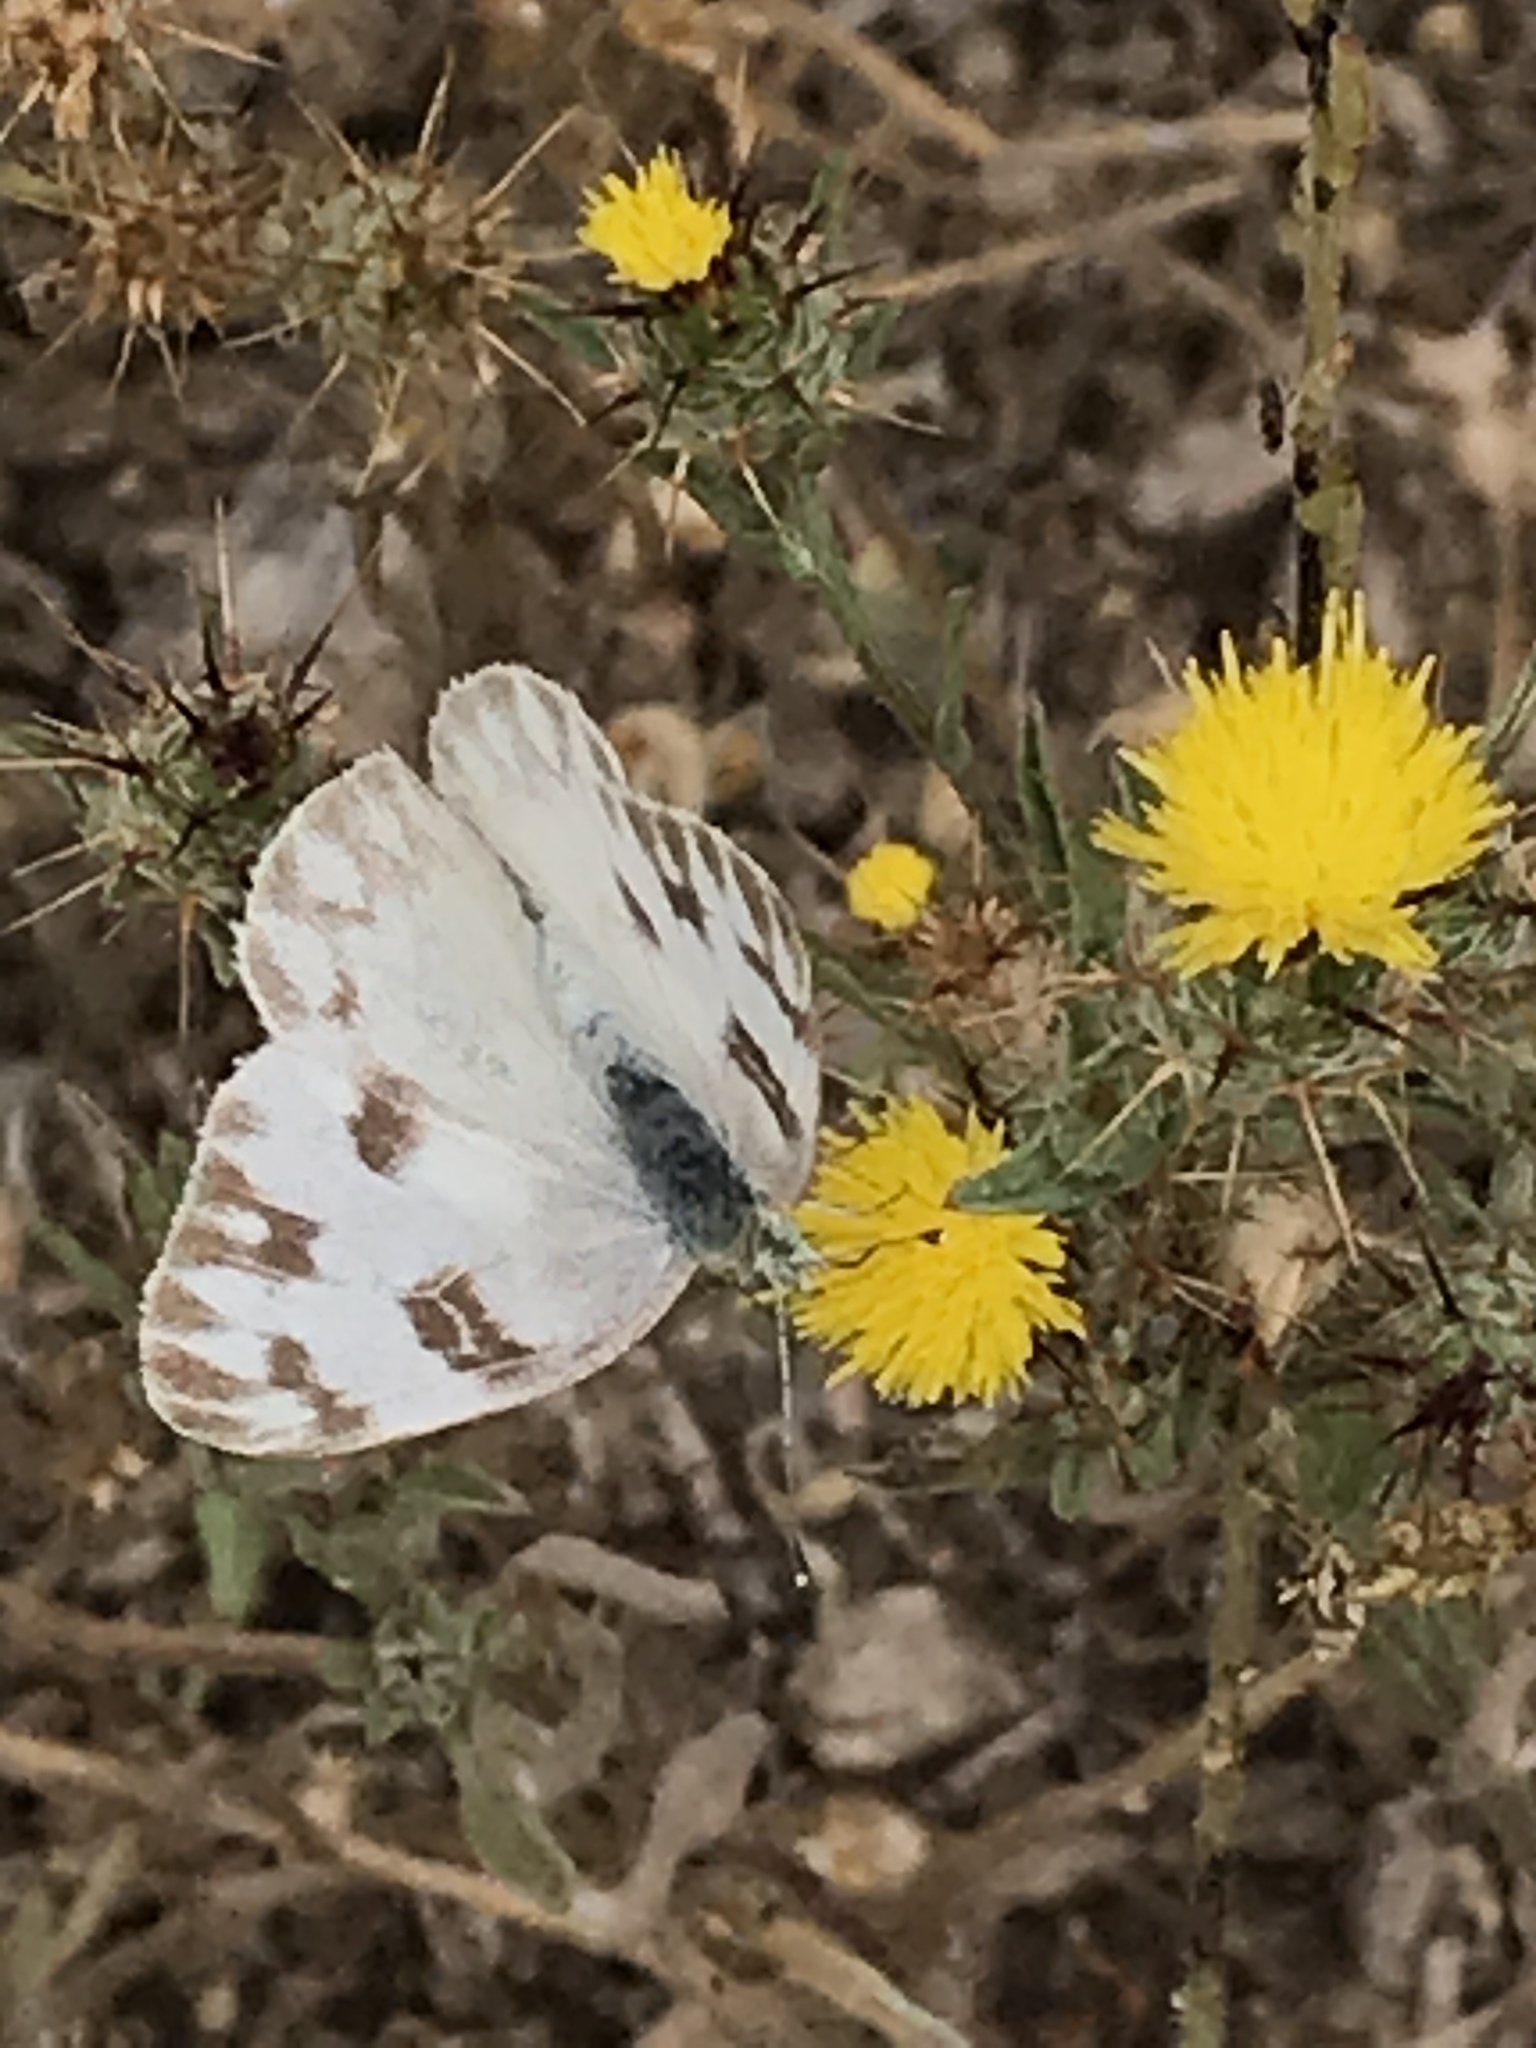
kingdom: Animalia
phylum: Arthropoda
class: Insecta
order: Lepidoptera
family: Pieridae
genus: Pontia
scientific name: Pontia protodice
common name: Checkered white
